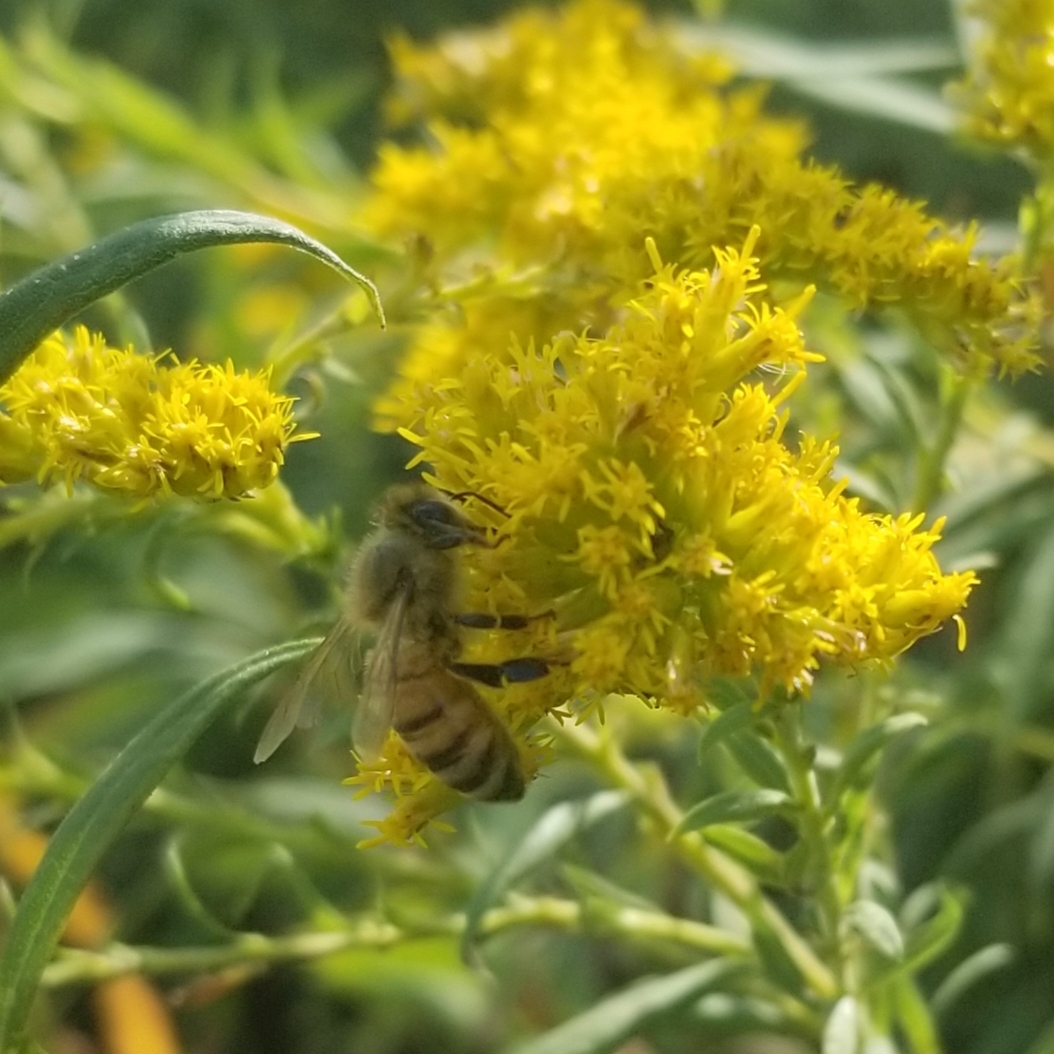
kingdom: Animalia
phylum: Arthropoda
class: Insecta
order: Hymenoptera
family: Apidae
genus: Apis
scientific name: Apis mellifera
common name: Honey bee
